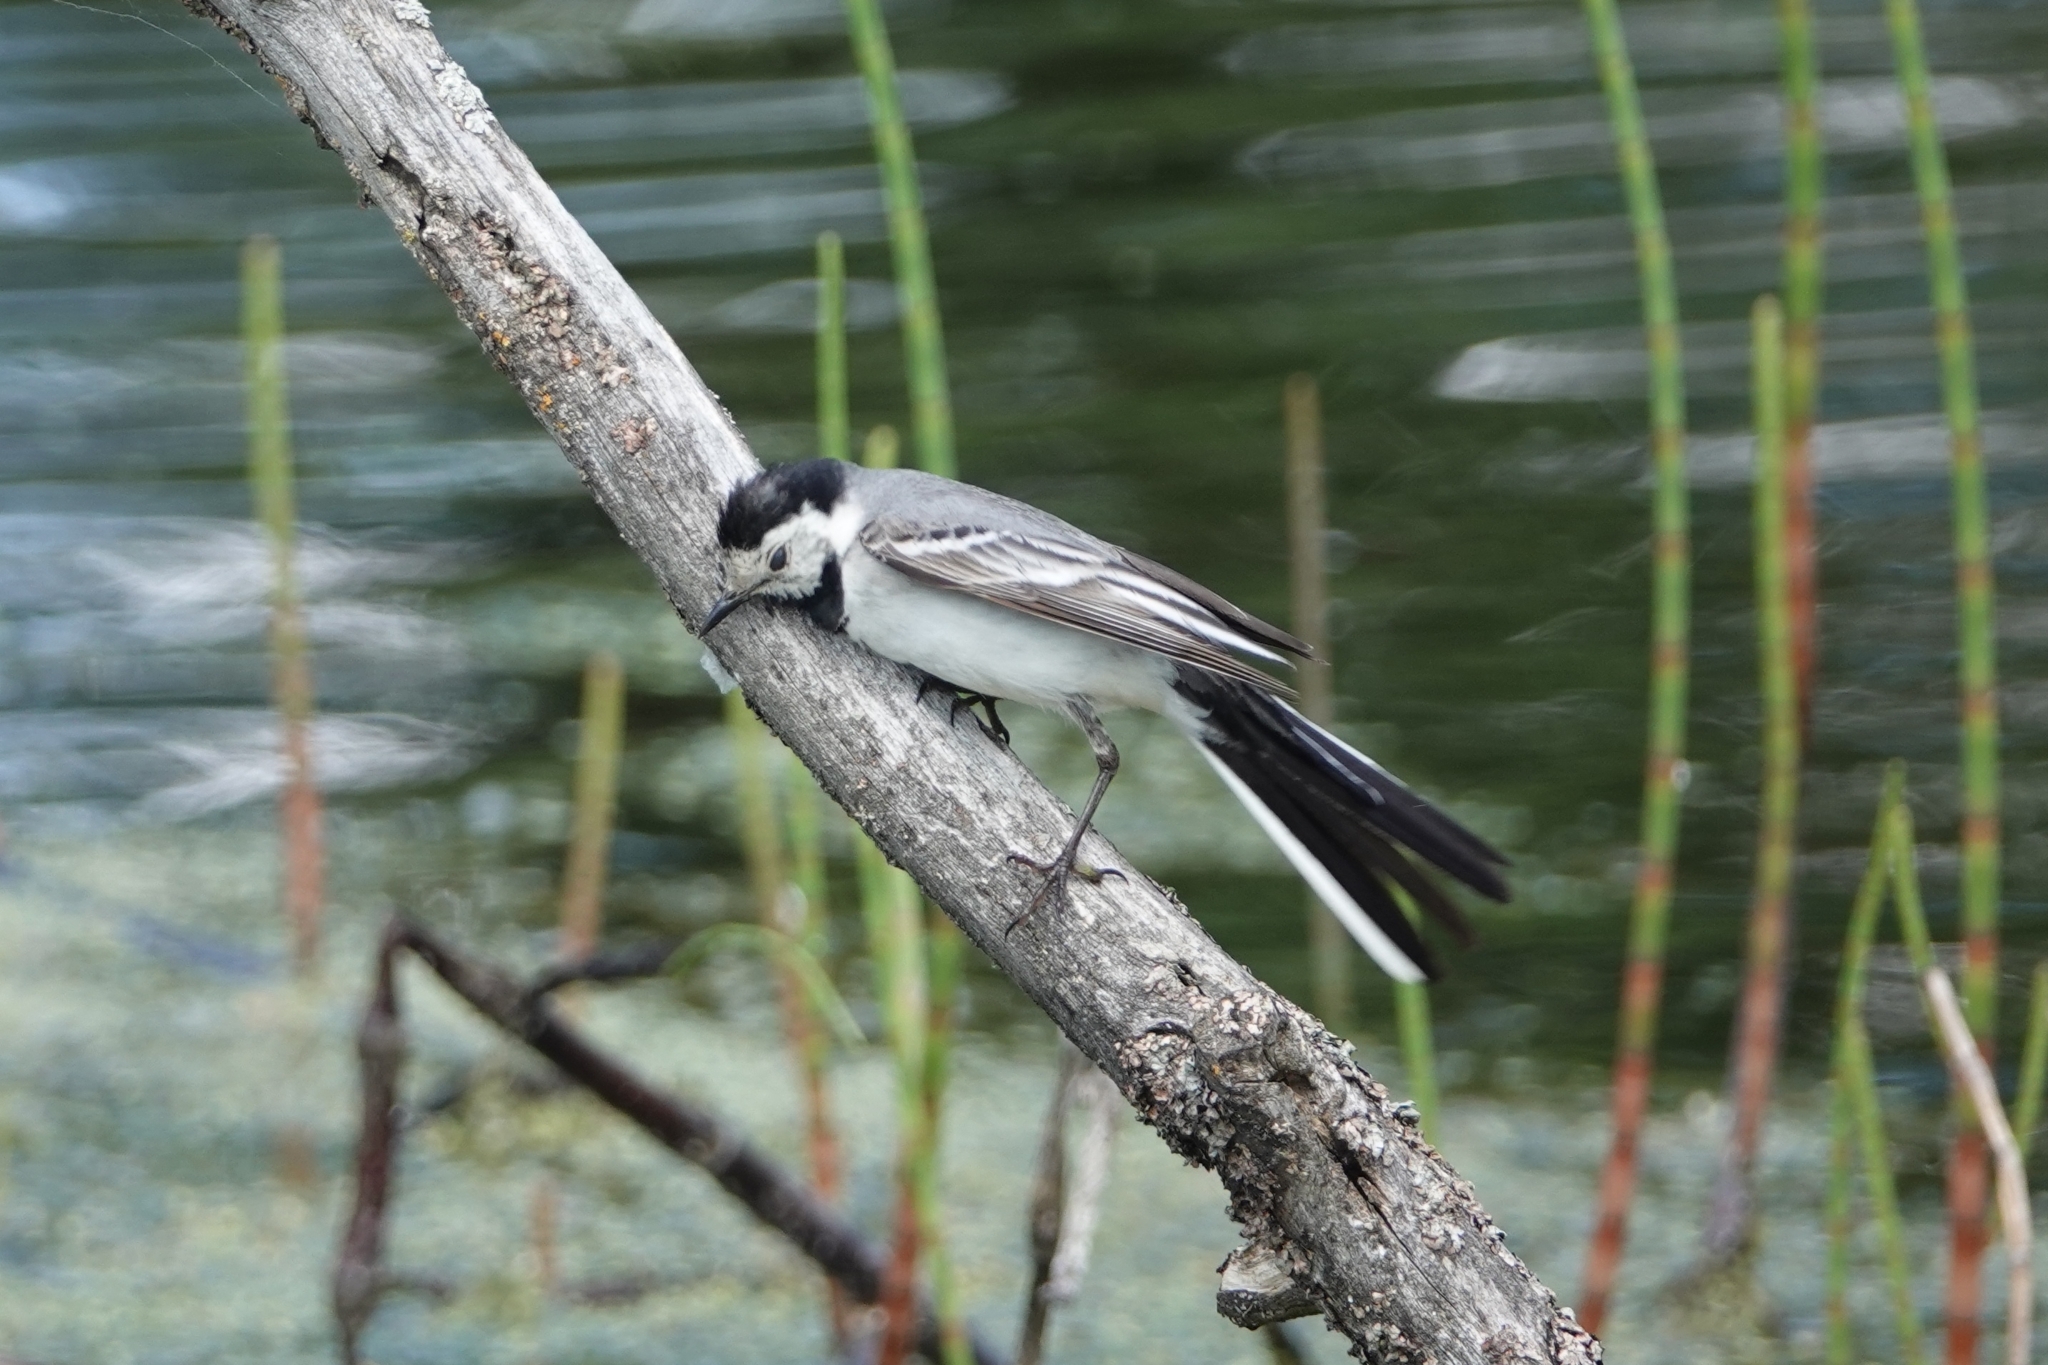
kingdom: Animalia
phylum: Chordata
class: Aves
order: Passeriformes
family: Motacillidae
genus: Motacilla
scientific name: Motacilla alba
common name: White wagtail
